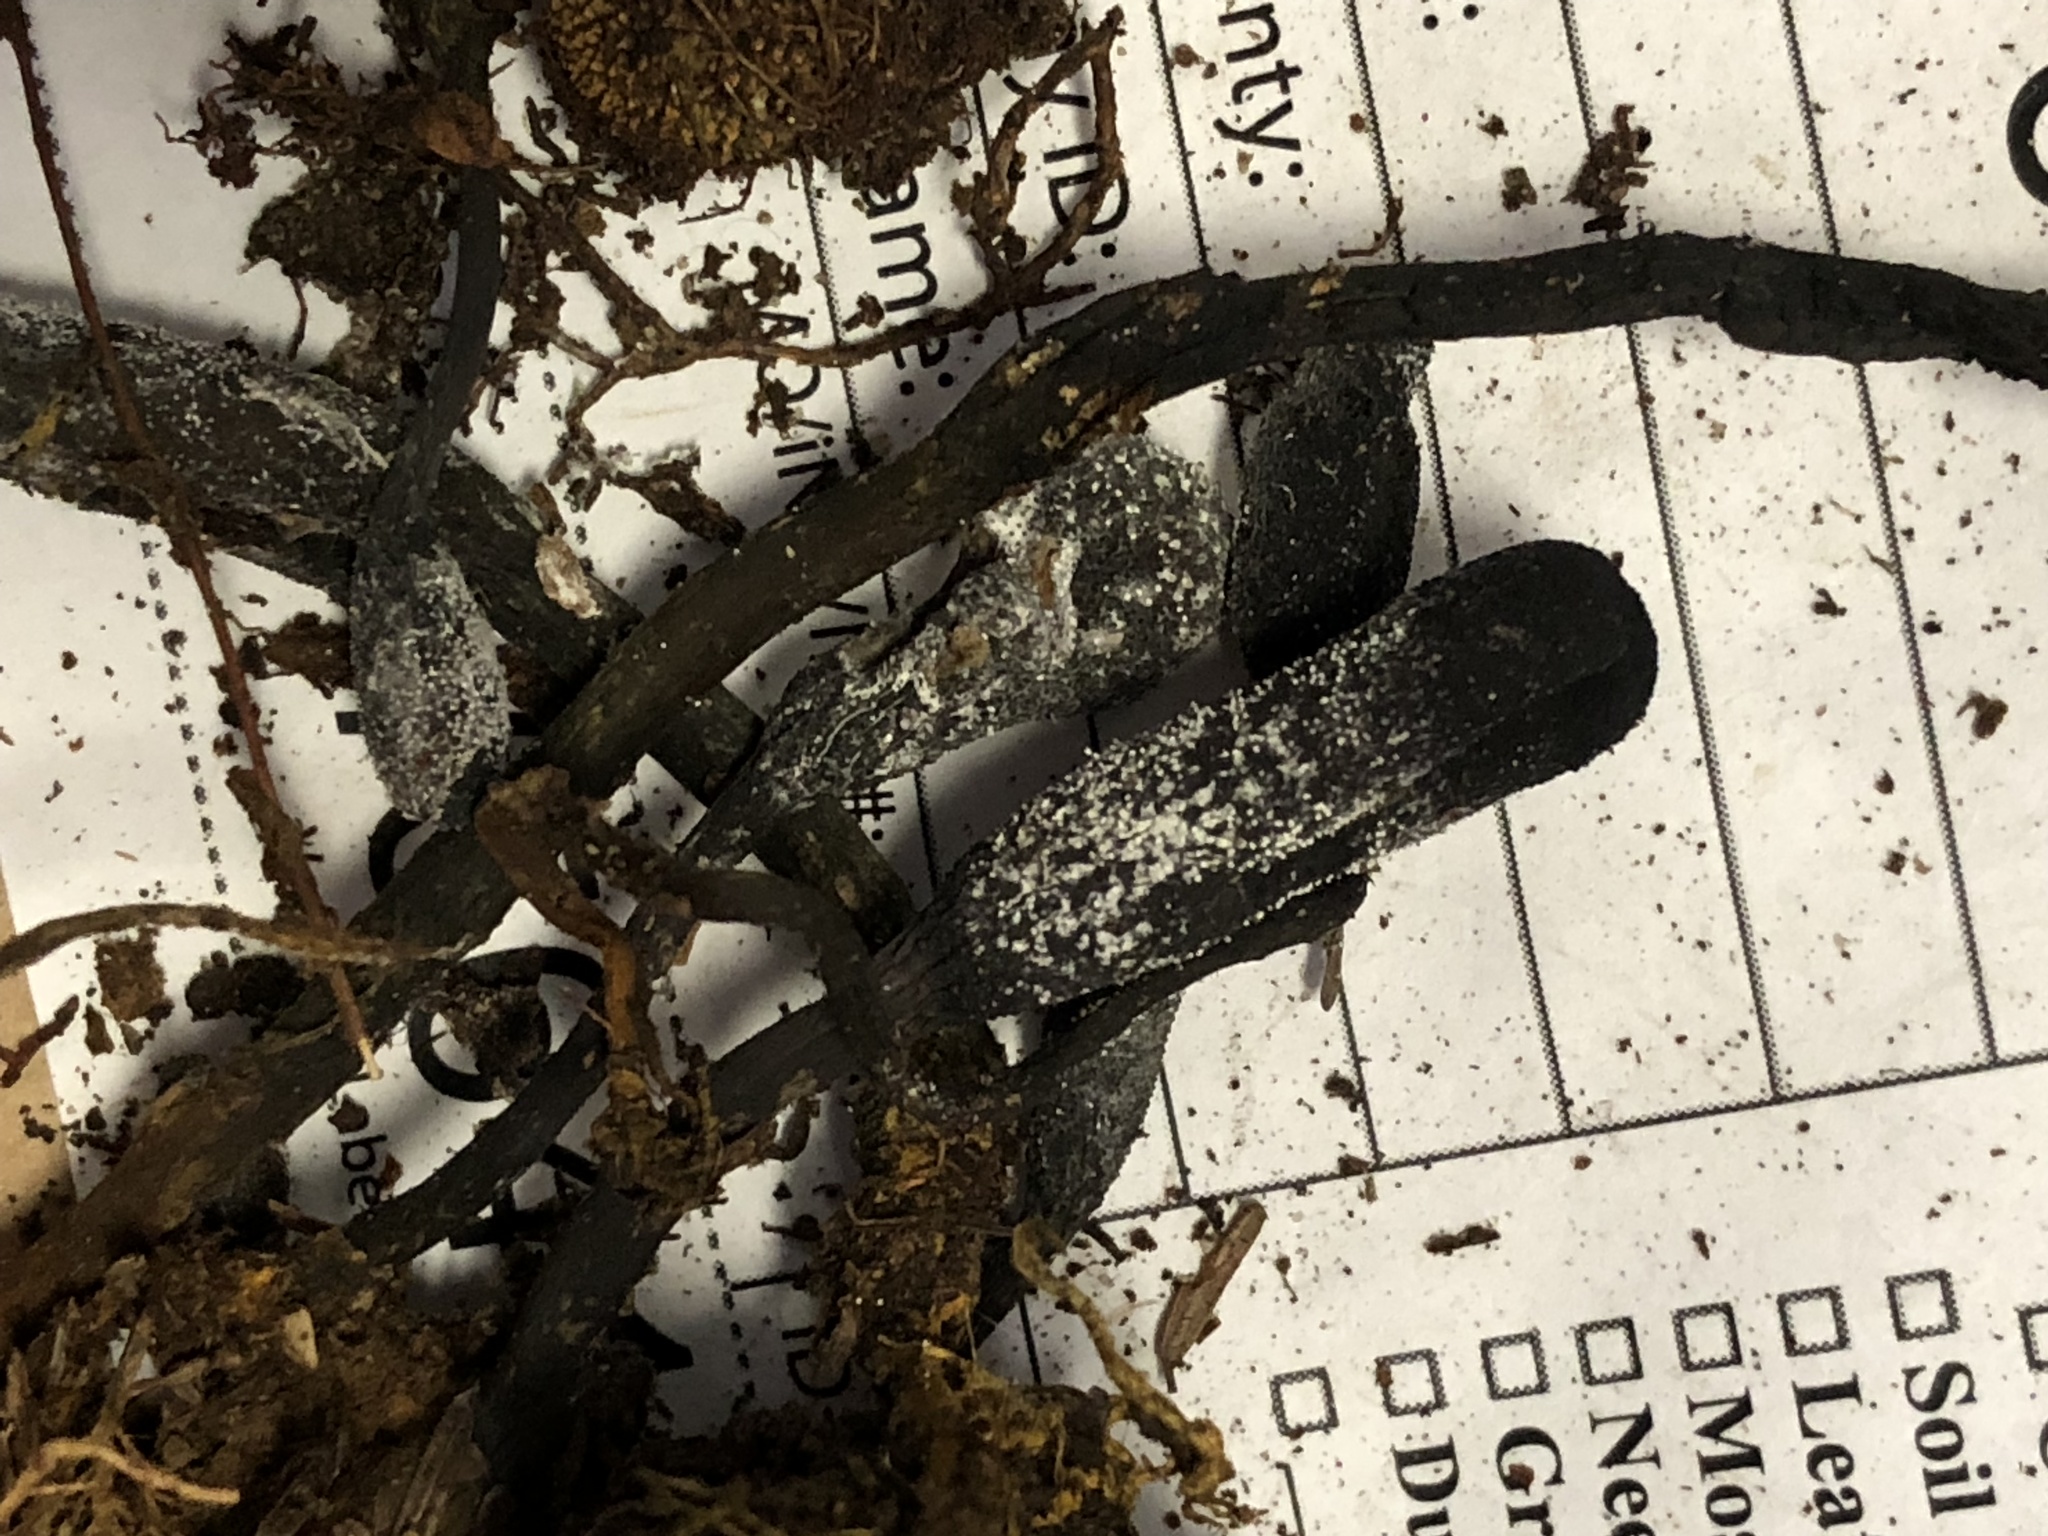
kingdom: Fungi
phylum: Ascomycota
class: Sordariomycetes
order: Hypocreales
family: Ophiocordycipitaceae
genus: Tolypocladium
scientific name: Tolypocladium ophioglossoides
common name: Snaketongue truffleclub
